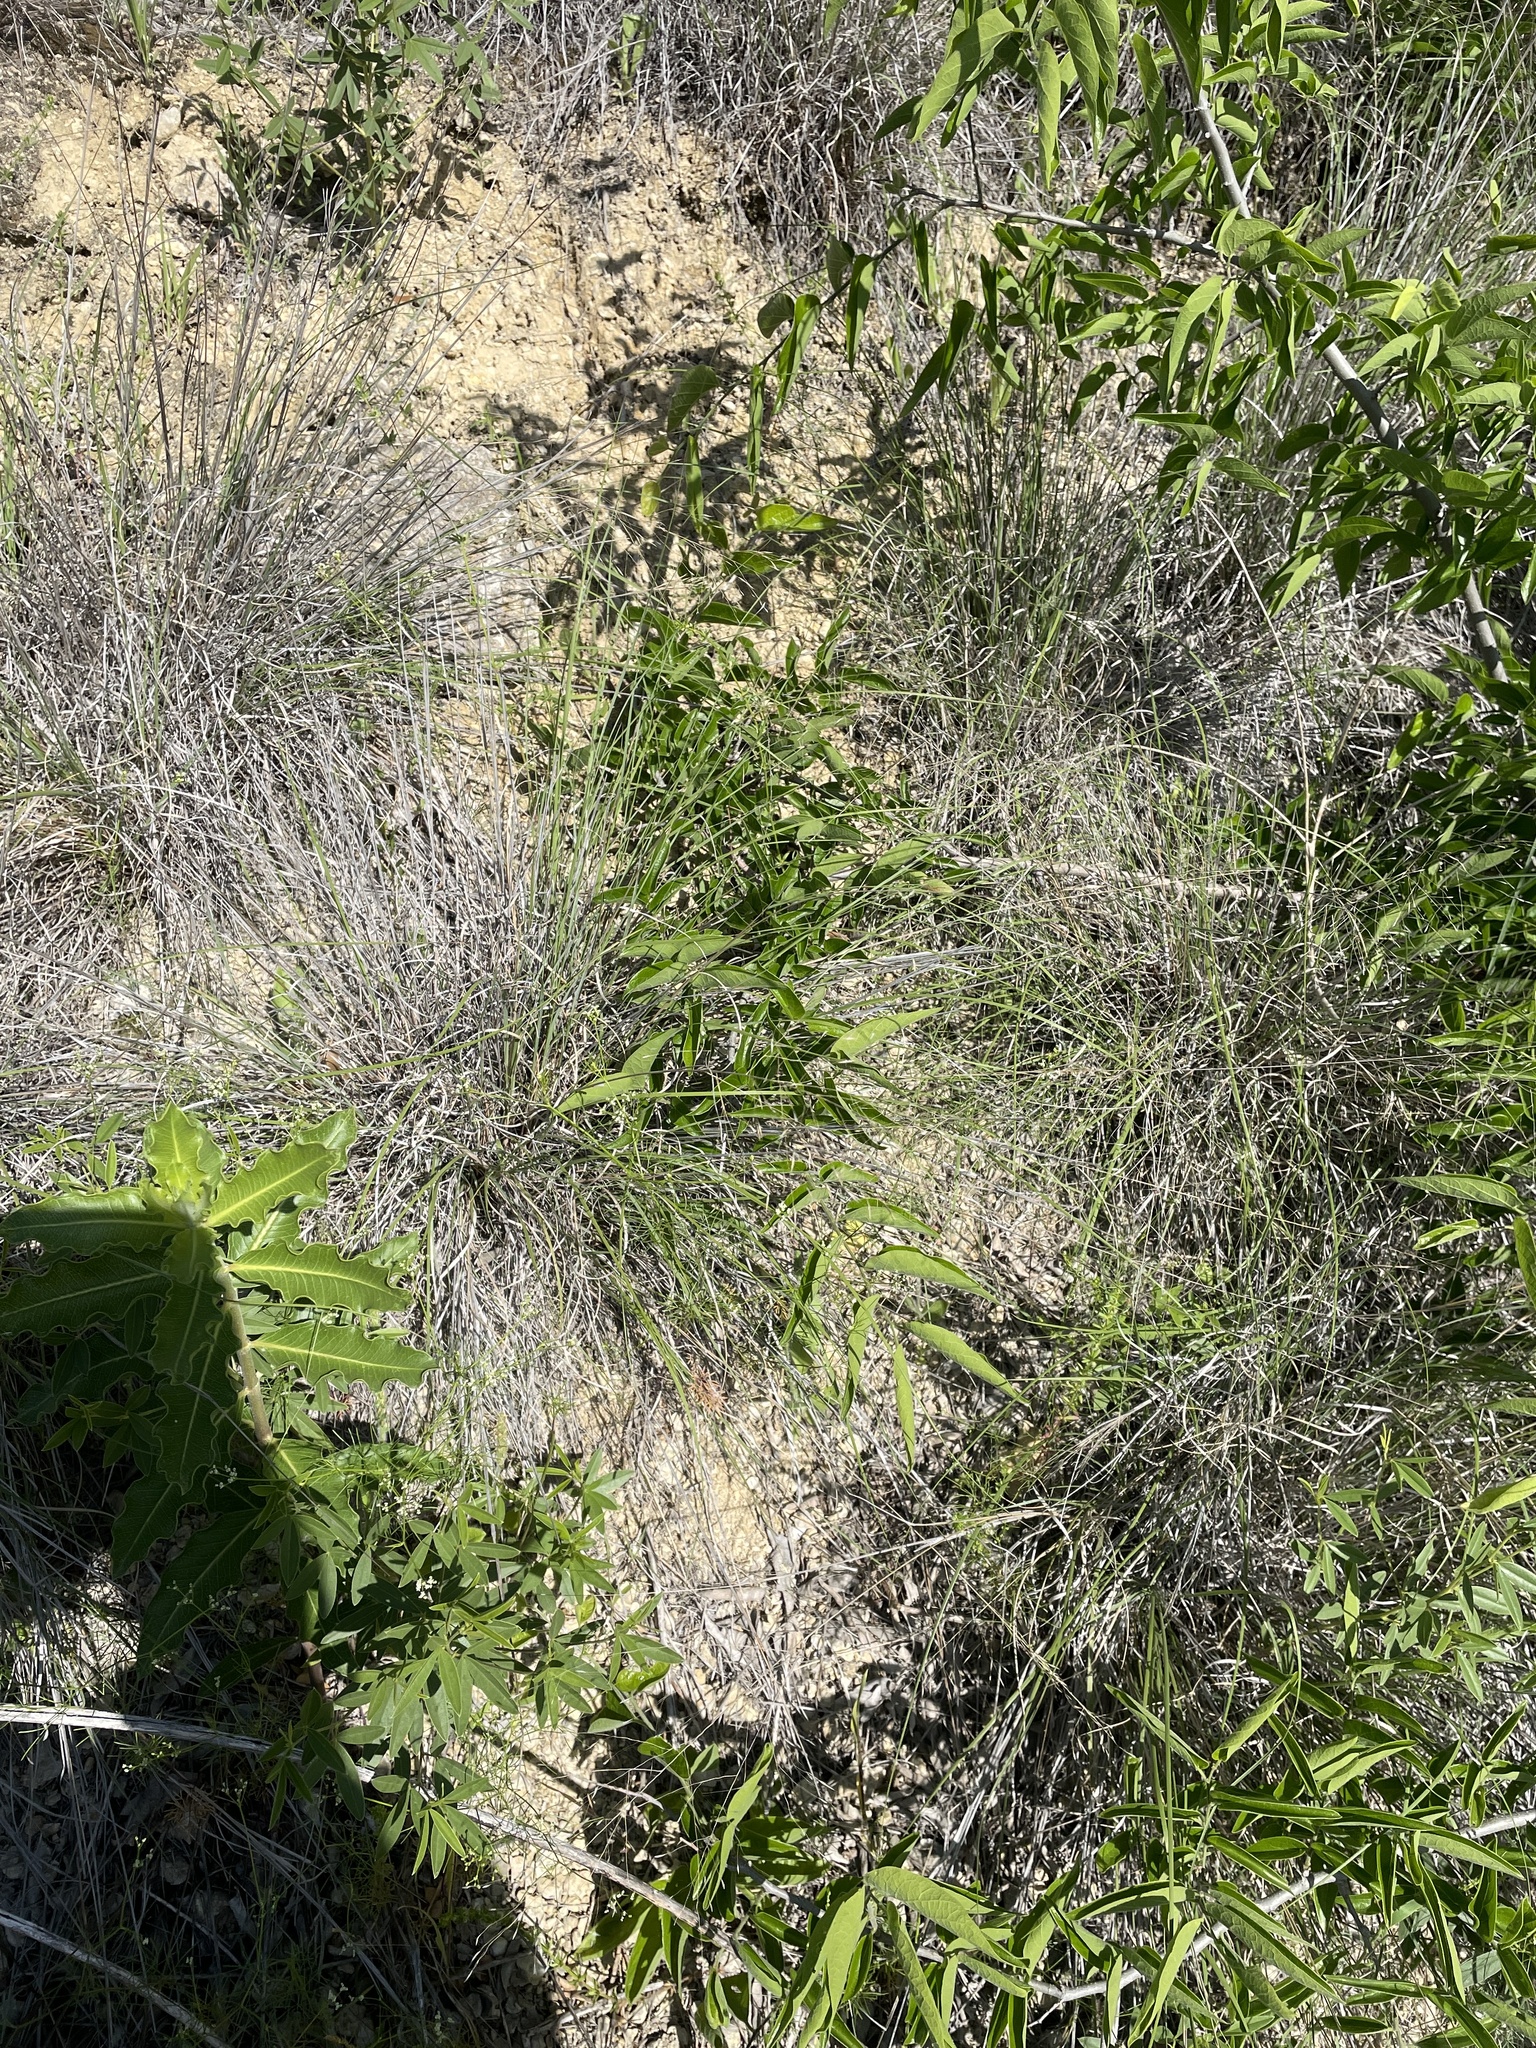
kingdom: Plantae
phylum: Tracheophyta
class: Liliopsida
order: Poales
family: Poaceae
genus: Muhlenbergia
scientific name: Muhlenbergia reverchonii
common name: Seep muhly
